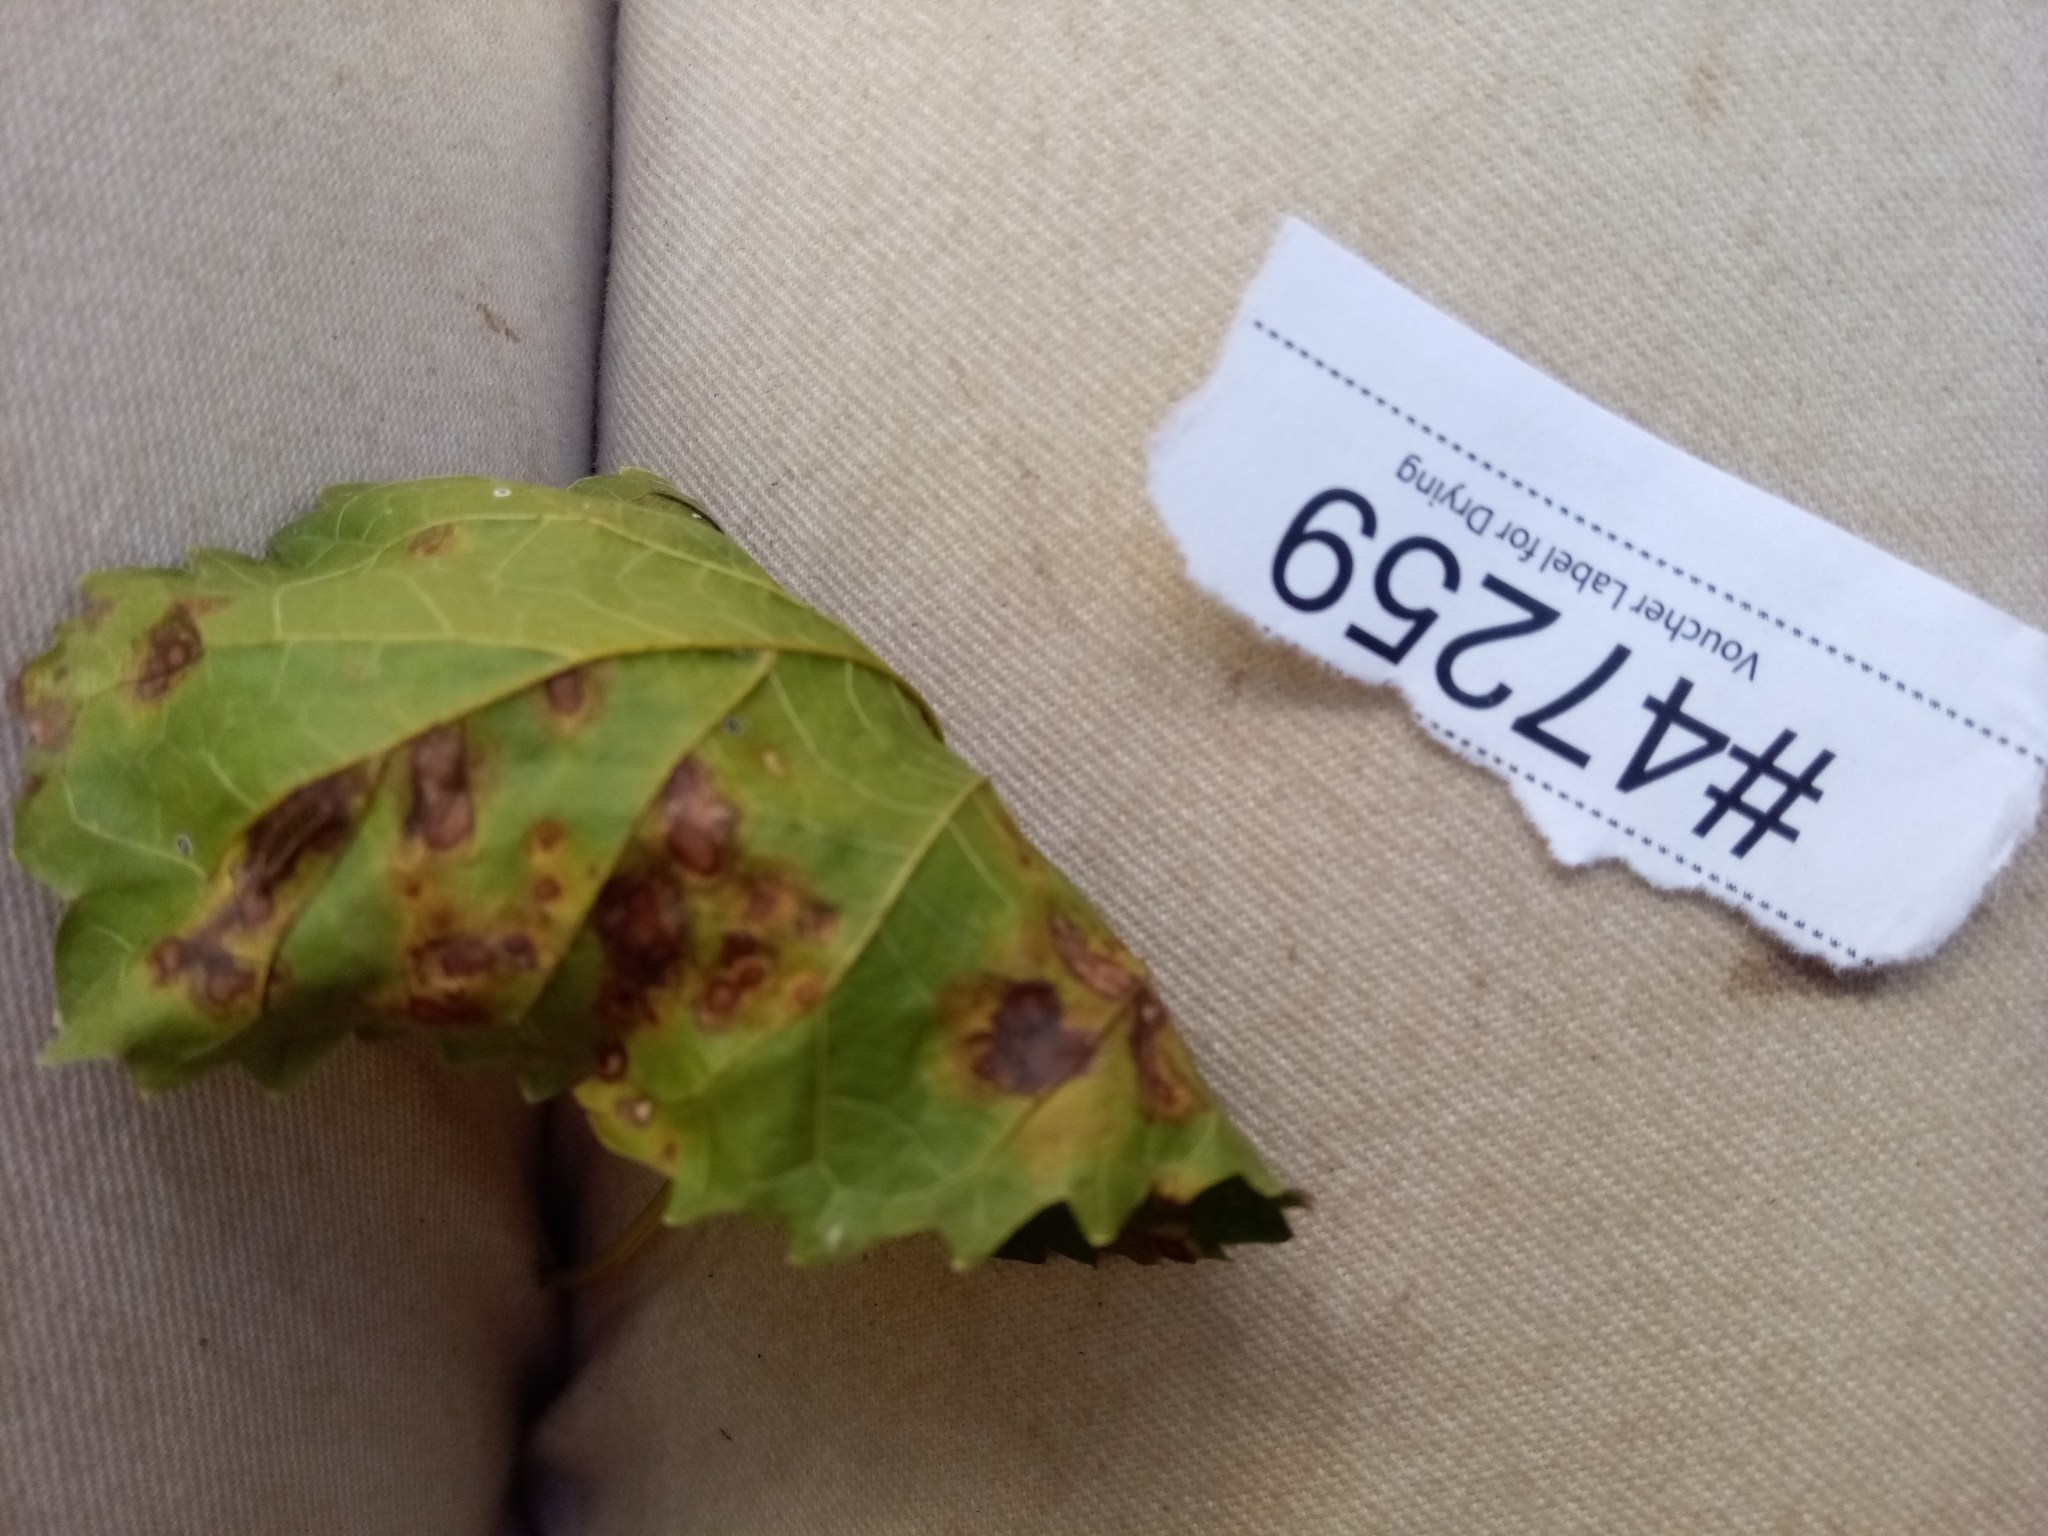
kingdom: Fungi
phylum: Ascomycota
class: Dothideomycetes
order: Mycosphaerellales
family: Mycosphaerellaceae
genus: Cercospora
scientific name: Cercospora moricola
